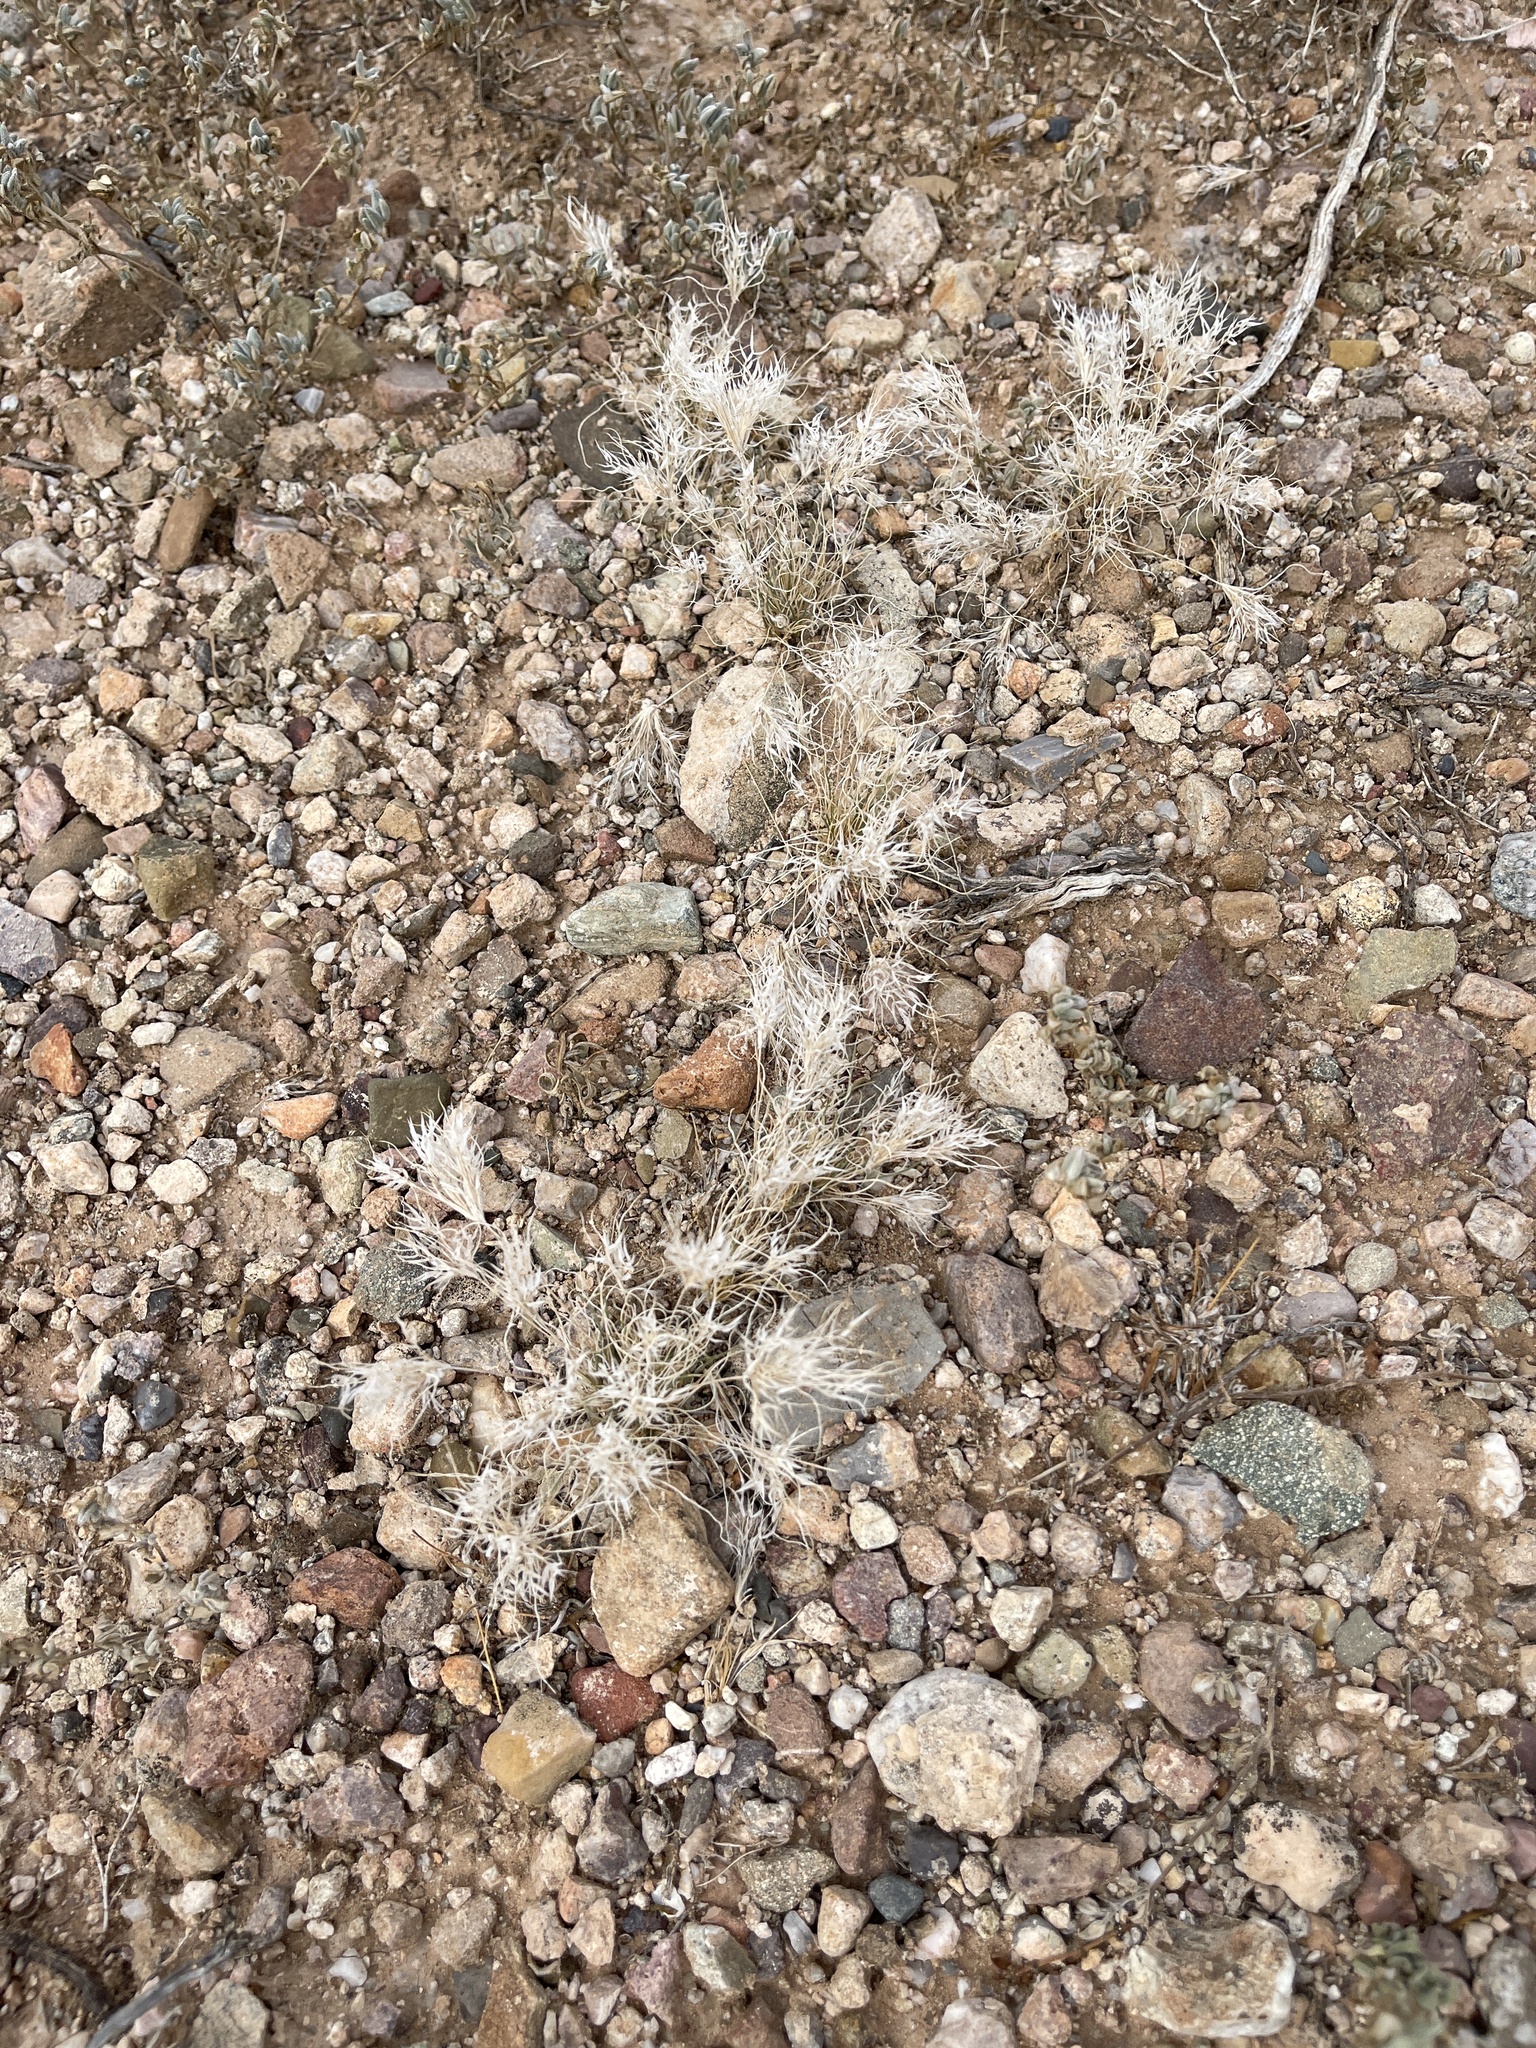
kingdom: Plantae
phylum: Tracheophyta
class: Liliopsida
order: Poales
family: Poaceae
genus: Dasyochloa
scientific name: Dasyochloa pulchella
